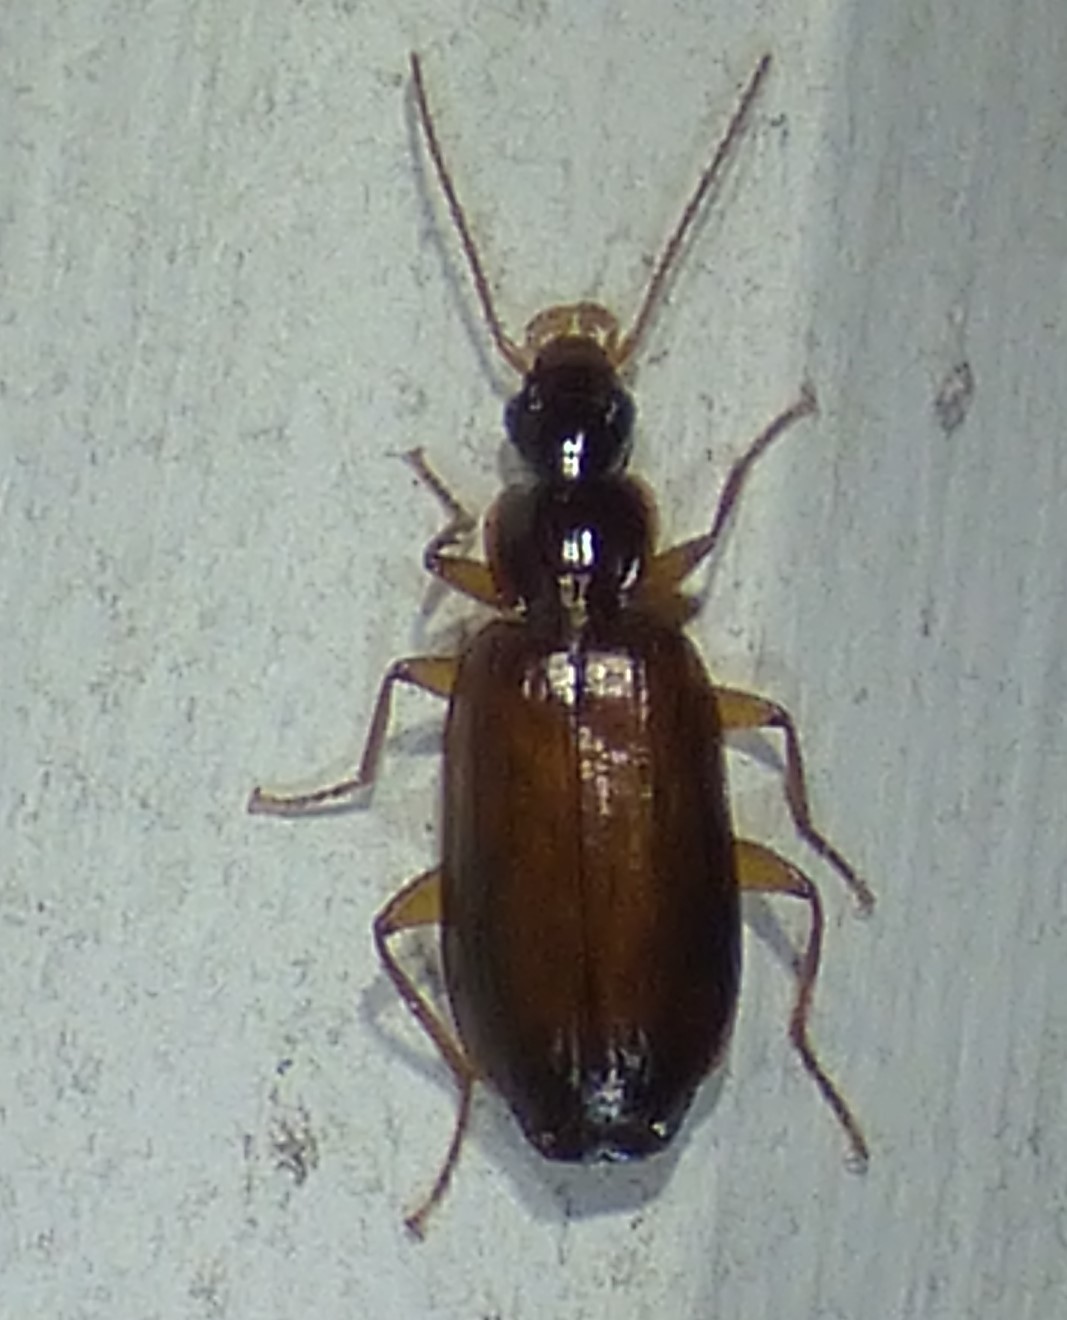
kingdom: Animalia
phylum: Arthropoda
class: Insecta
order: Coleoptera
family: Carabidae
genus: Dromius
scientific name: Dromius piceus
